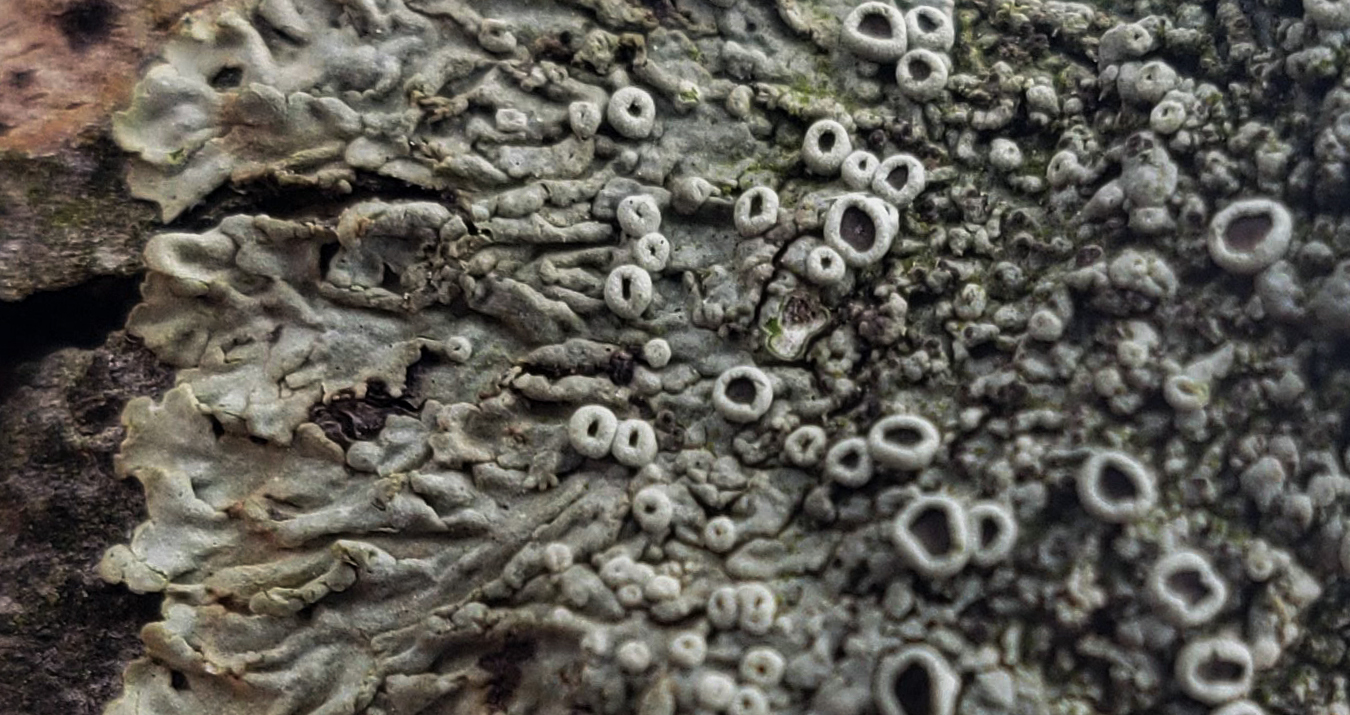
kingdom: Fungi
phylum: Ascomycota
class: Lecanoromycetes
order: Caliciales
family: Physciaceae
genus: Hyperphyscia
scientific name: Hyperphyscia syncolla
